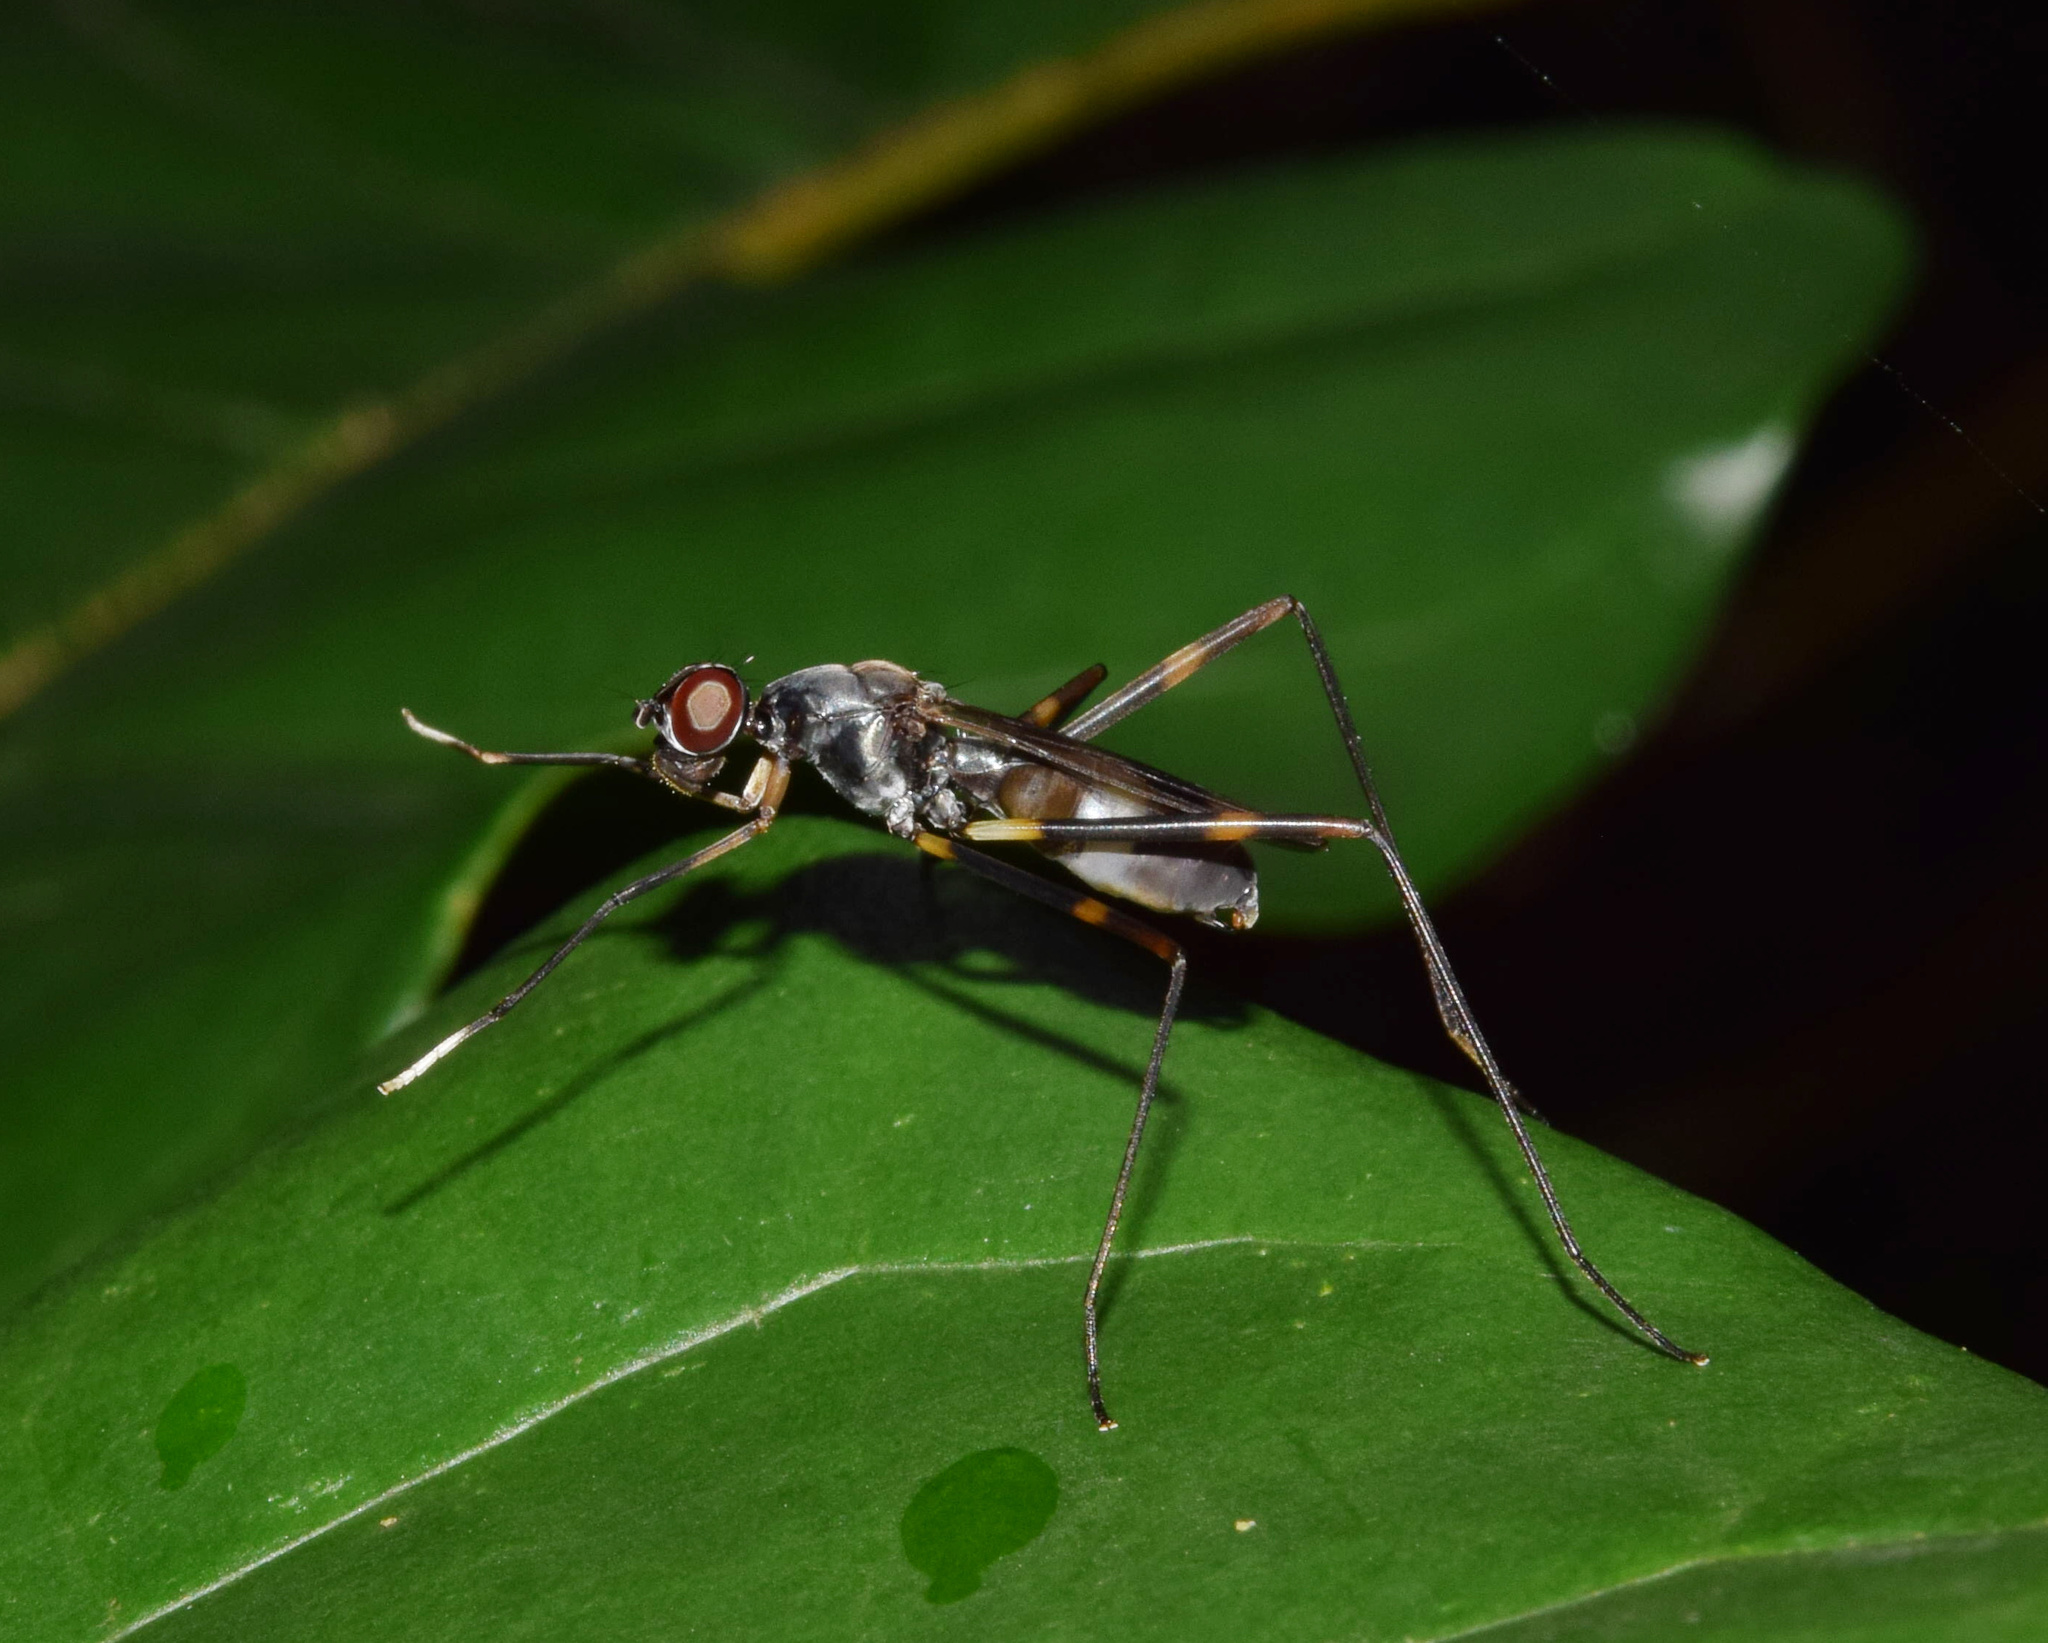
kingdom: Animalia
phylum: Arthropoda
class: Insecta
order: Diptera
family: Micropezidae
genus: Hybobata
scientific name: Hybobata
